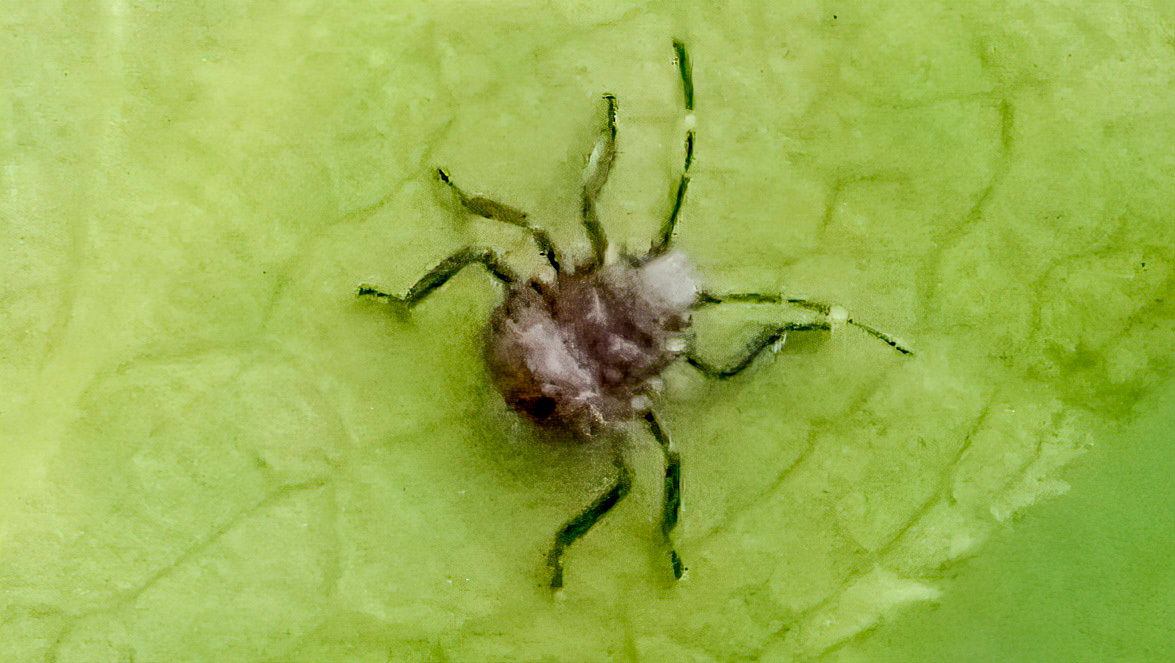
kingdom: Animalia
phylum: Arthropoda
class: Insecta
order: Hemiptera
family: Pentatomidae
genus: Halyomorpha
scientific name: Halyomorpha halys
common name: Brown marmorated stink bug
